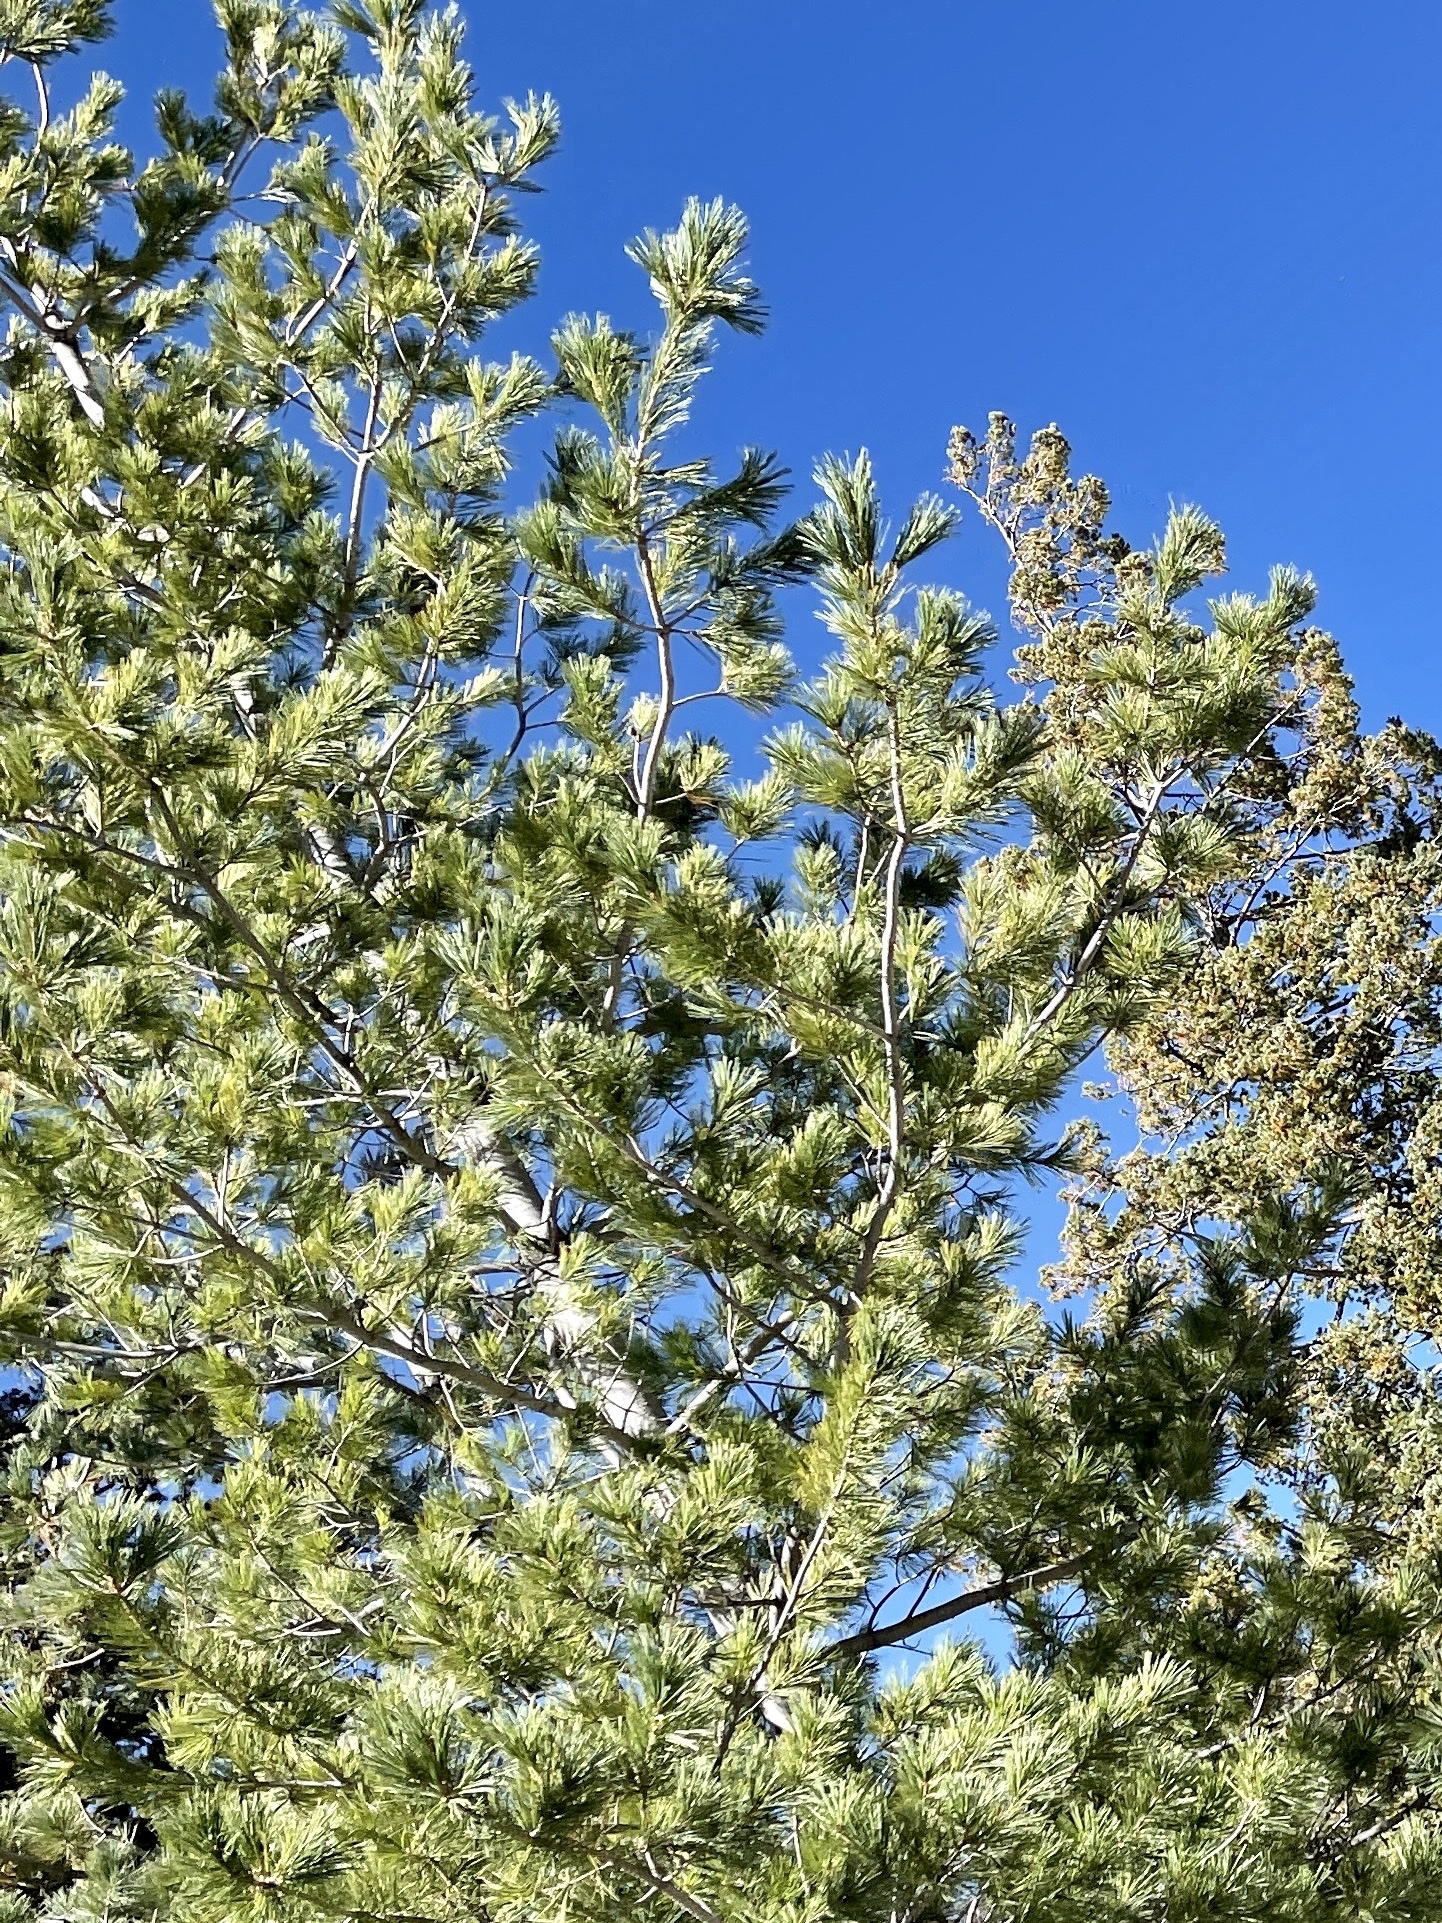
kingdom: Plantae
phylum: Tracheophyta
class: Pinopsida
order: Pinales
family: Pinaceae
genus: Pinus
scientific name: Pinus strobiformis
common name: Southwestern white pine
